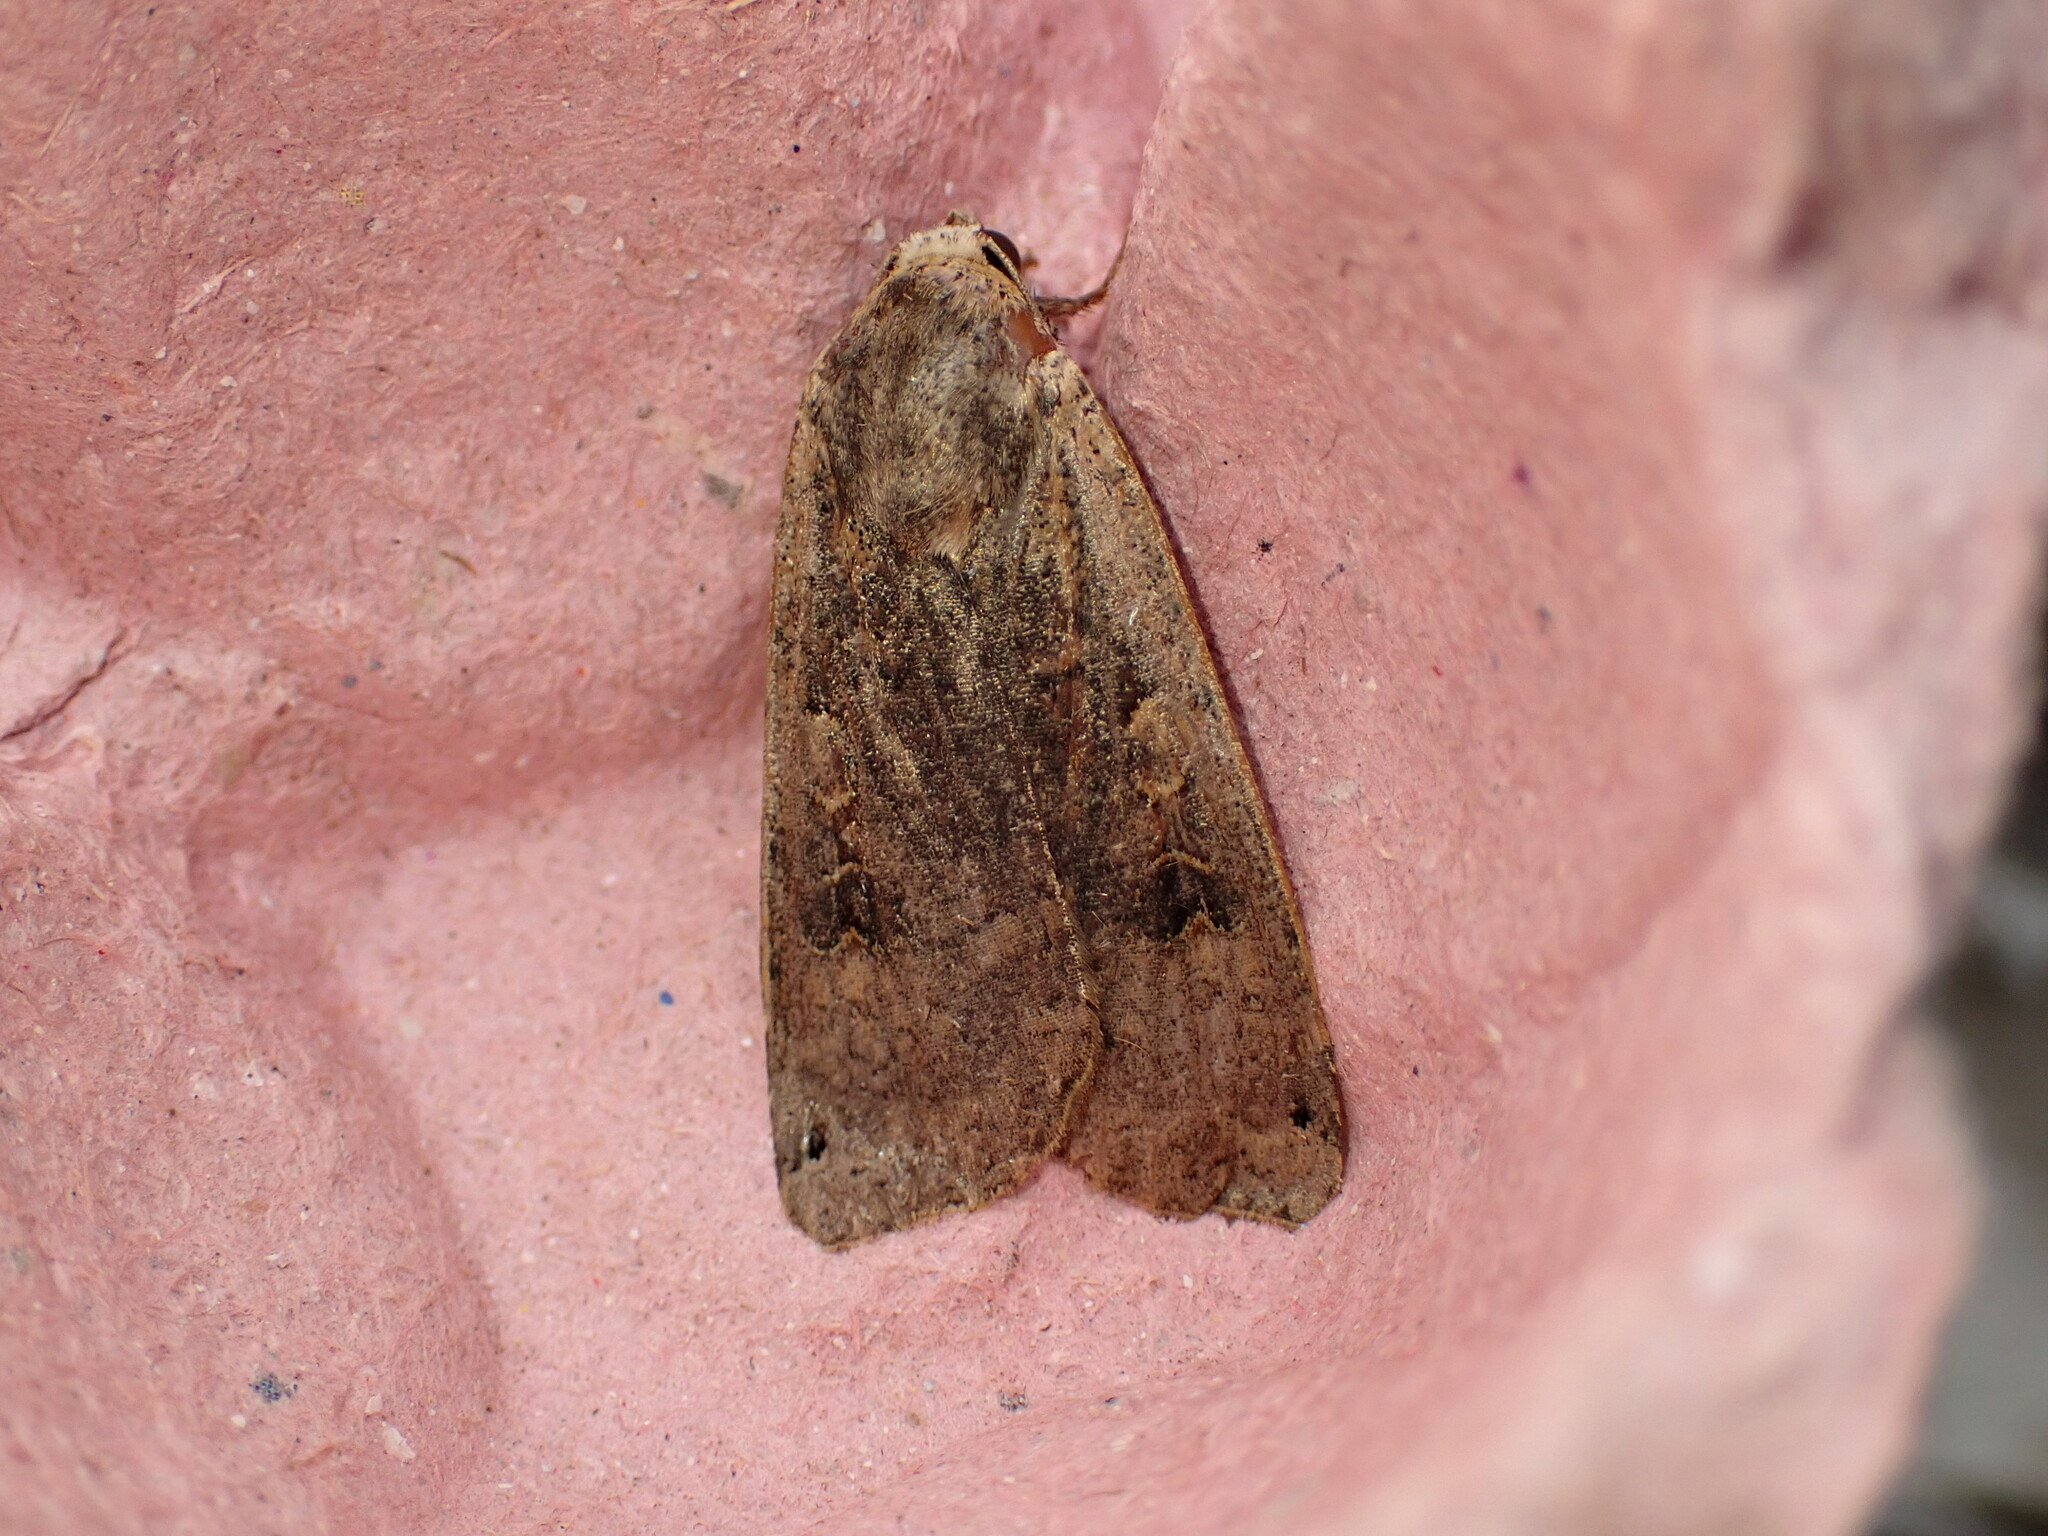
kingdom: Animalia
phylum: Arthropoda
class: Insecta
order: Lepidoptera
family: Noctuidae
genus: Noctua
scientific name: Noctua pronuba
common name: Large yellow underwing
